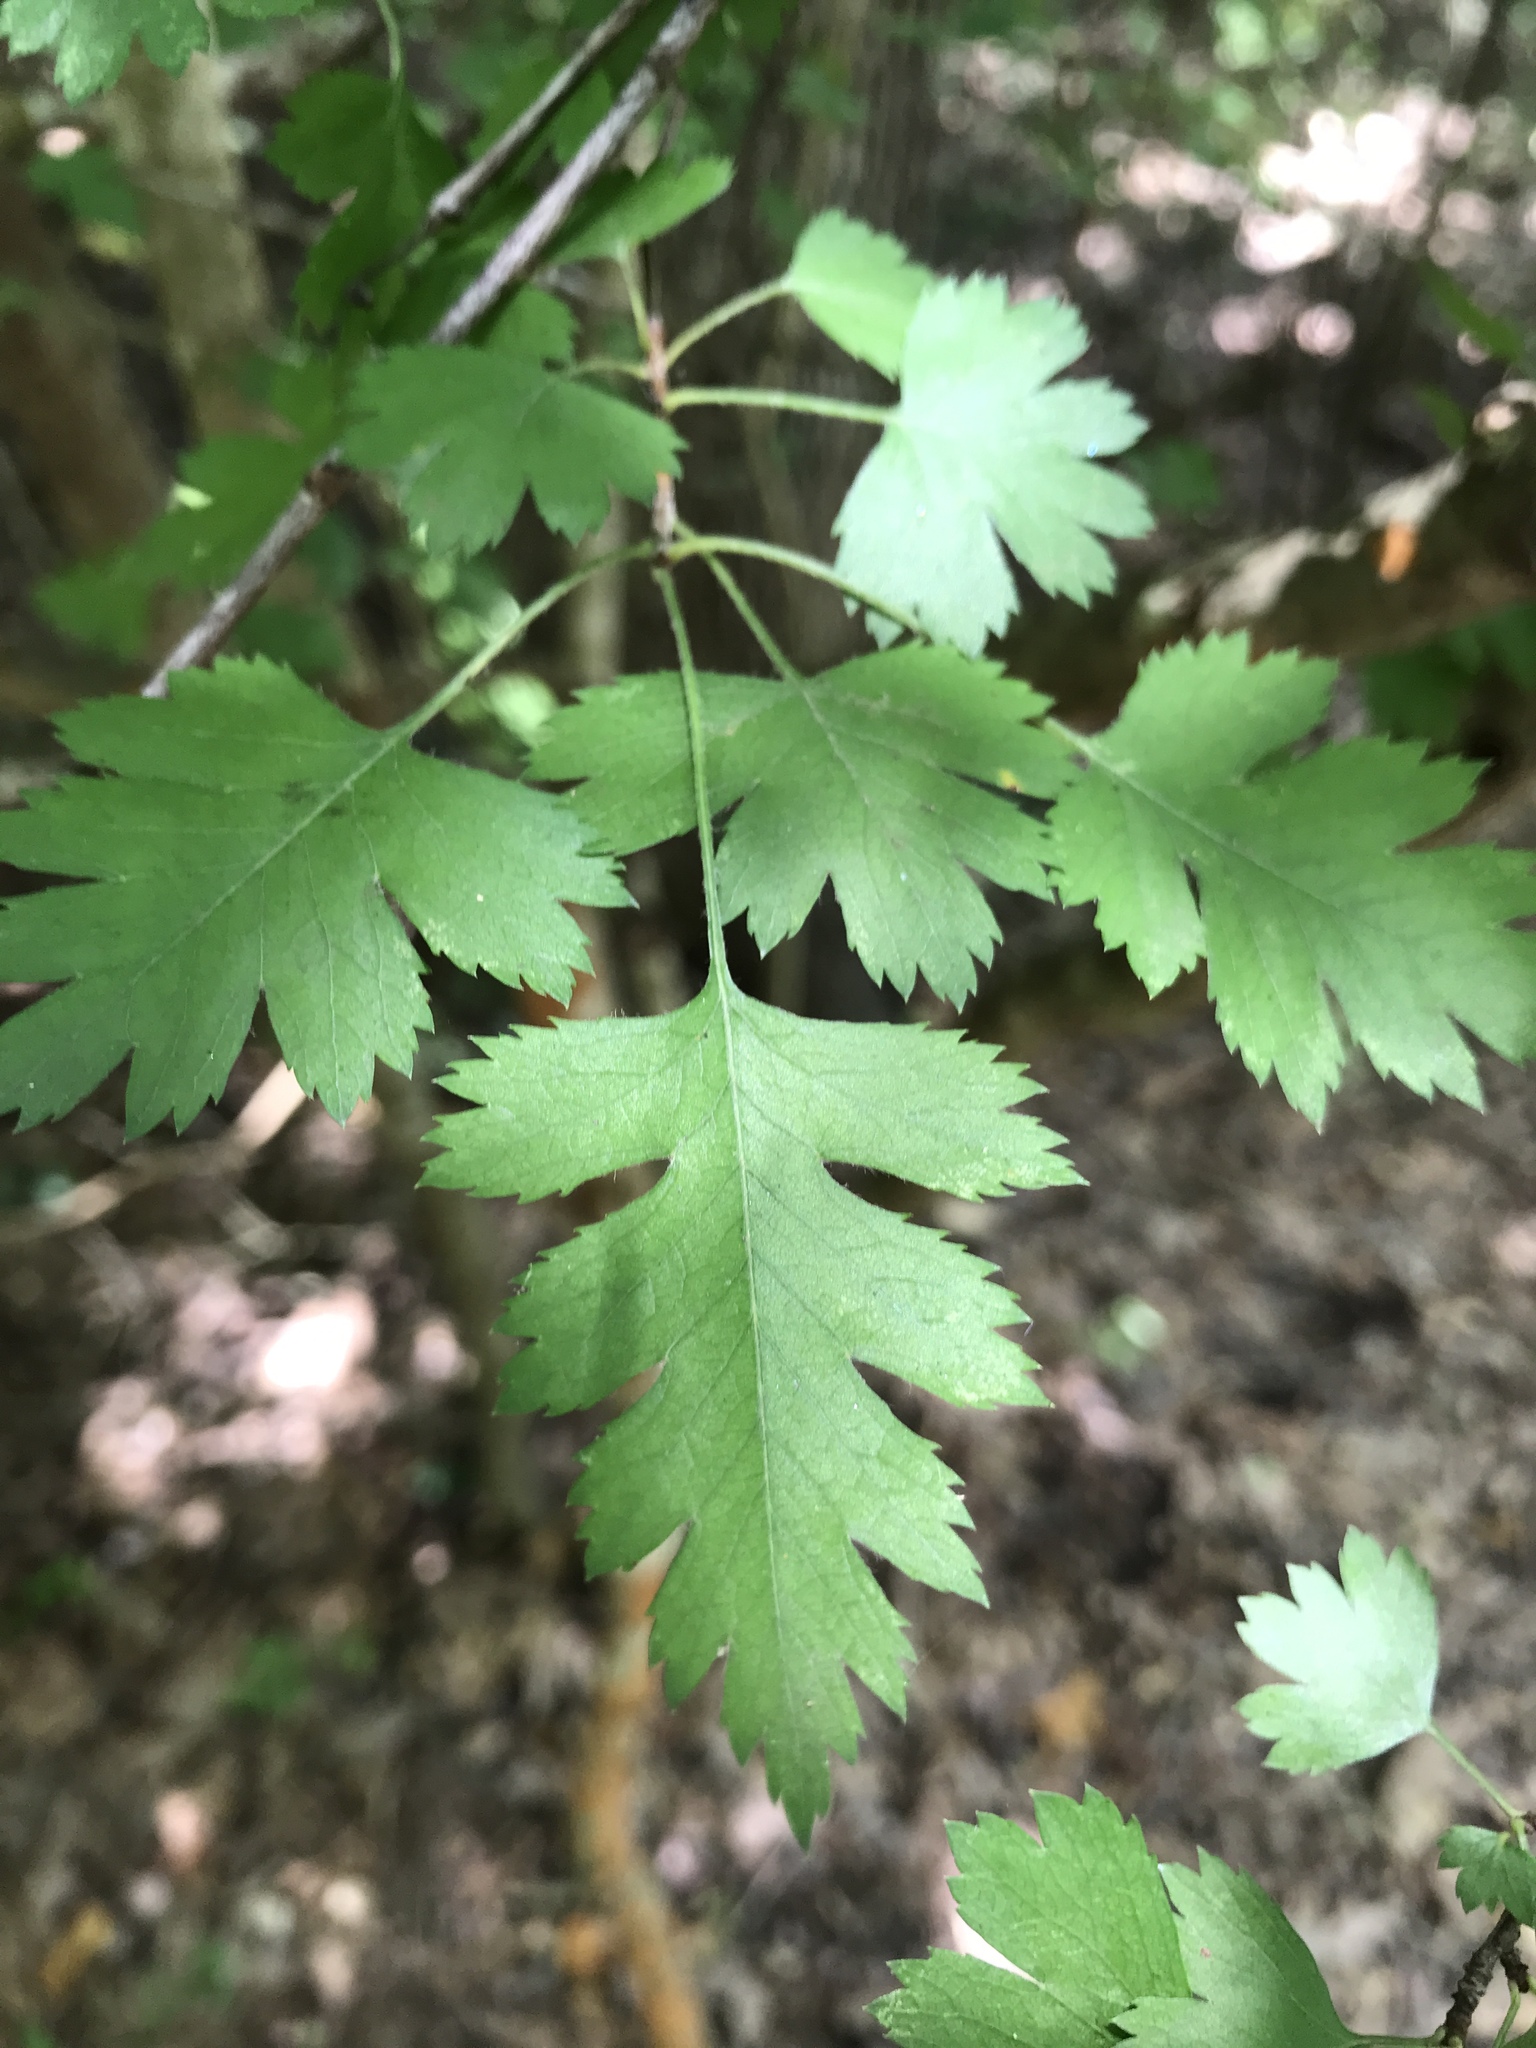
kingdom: Plantae
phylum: Tracheophyta
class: Magnoliopsida
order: Rosales
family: Rosaceae
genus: Crataegus
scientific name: Crataegus marshallii
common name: Parsley-hawthorn
